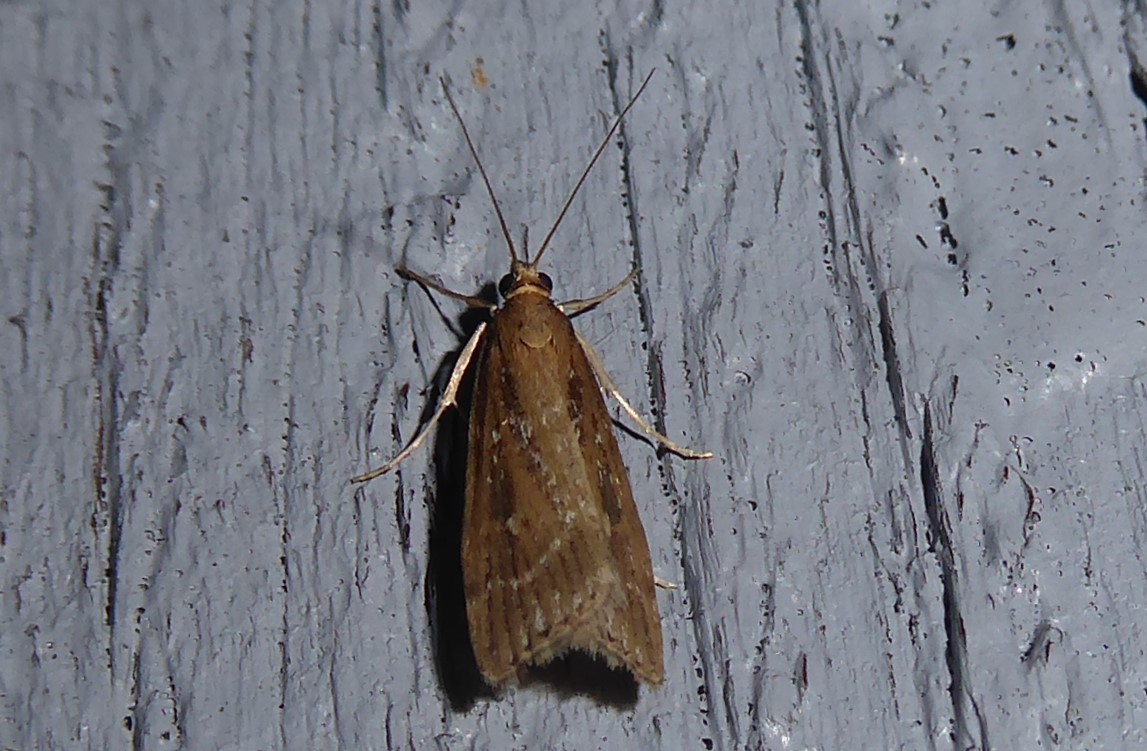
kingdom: Animalia
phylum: Arthropoda
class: Insecta
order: Lepidoptera
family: Crambidae
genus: Eudonia
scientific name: Eudonia octophora
